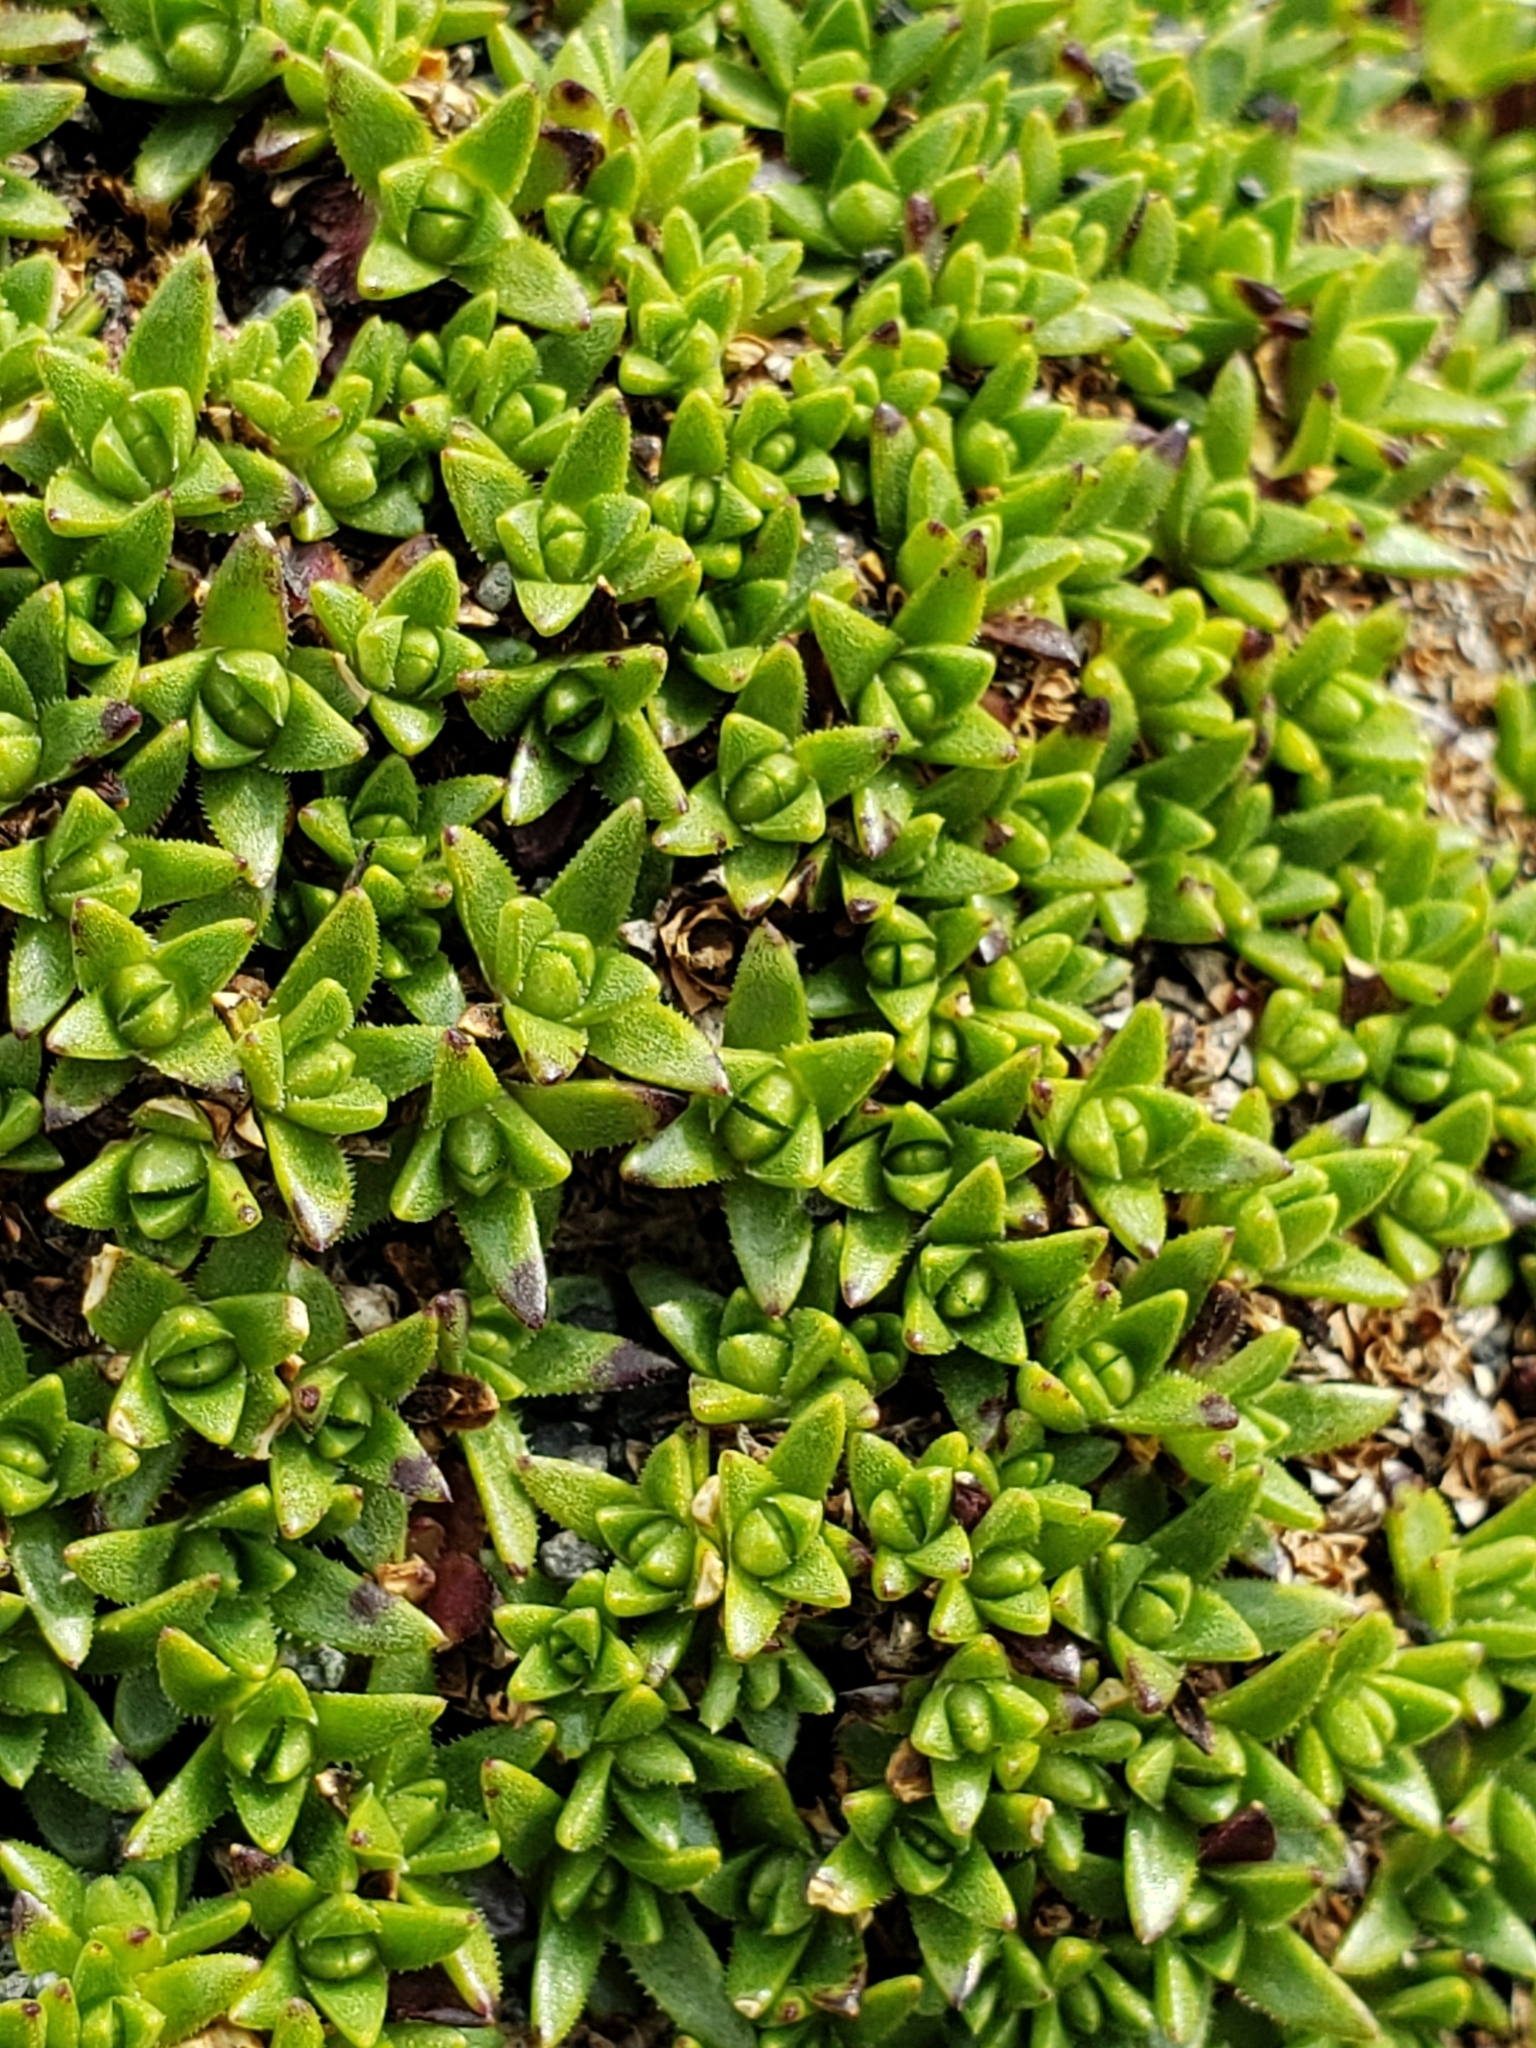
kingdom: Plantae
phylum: Tracheophyta
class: Magnoliopsida
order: Caryophyllales
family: Caryophyllaceae
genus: Silene
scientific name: Silene acaulis
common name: Moss campion
